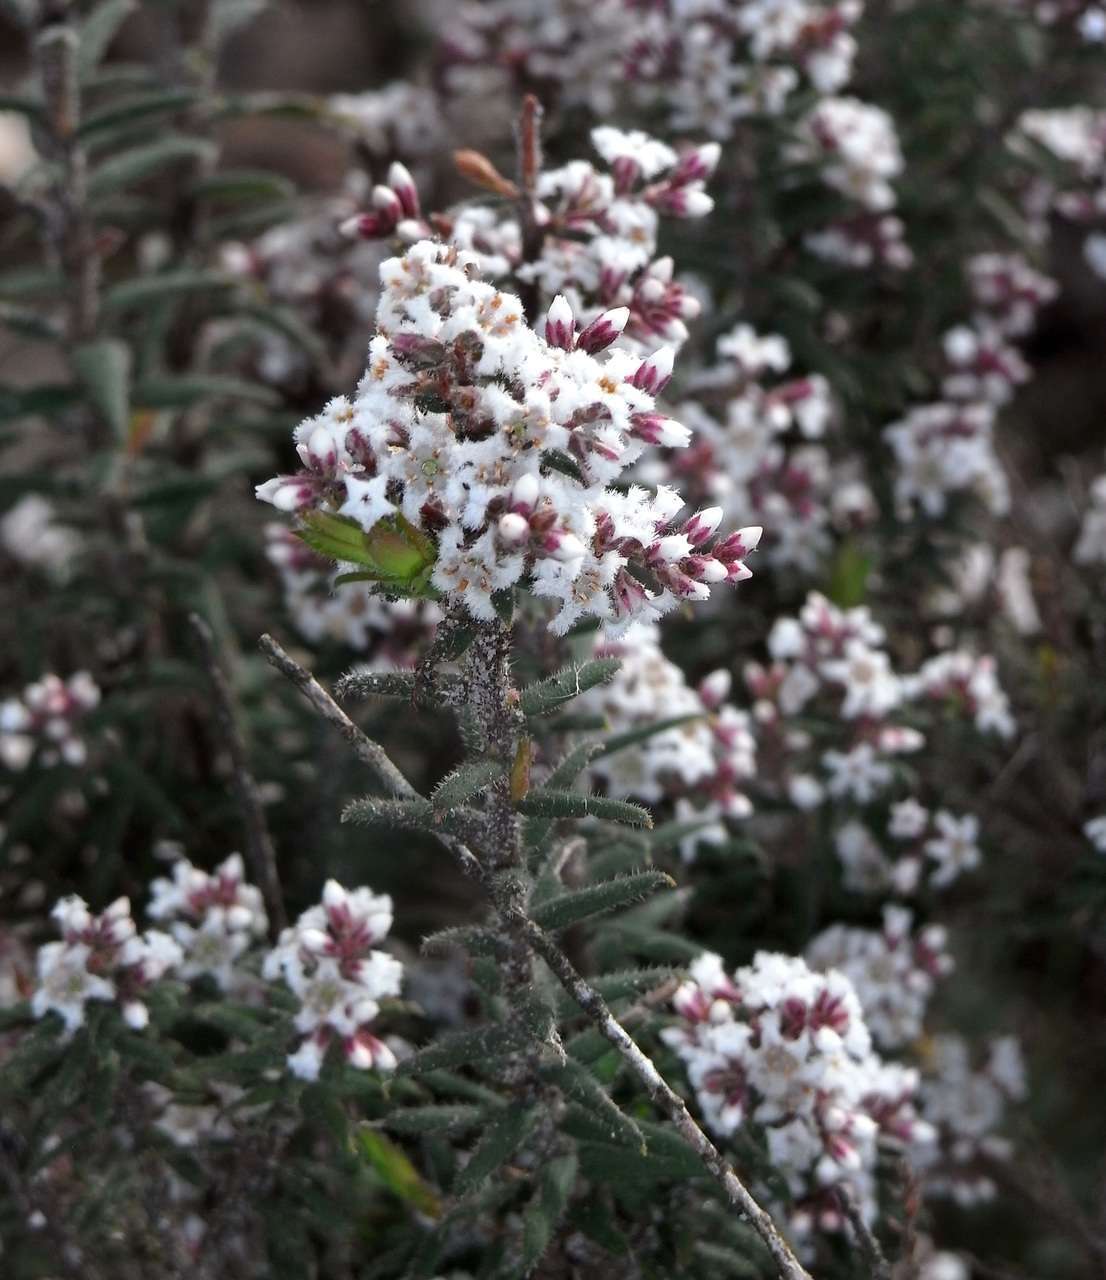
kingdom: Plantae
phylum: Tracheophyta
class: Magnoliopsida
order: Ericales
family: Ericaceae
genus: Leucopogon
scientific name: Leucopogon thymifolius
